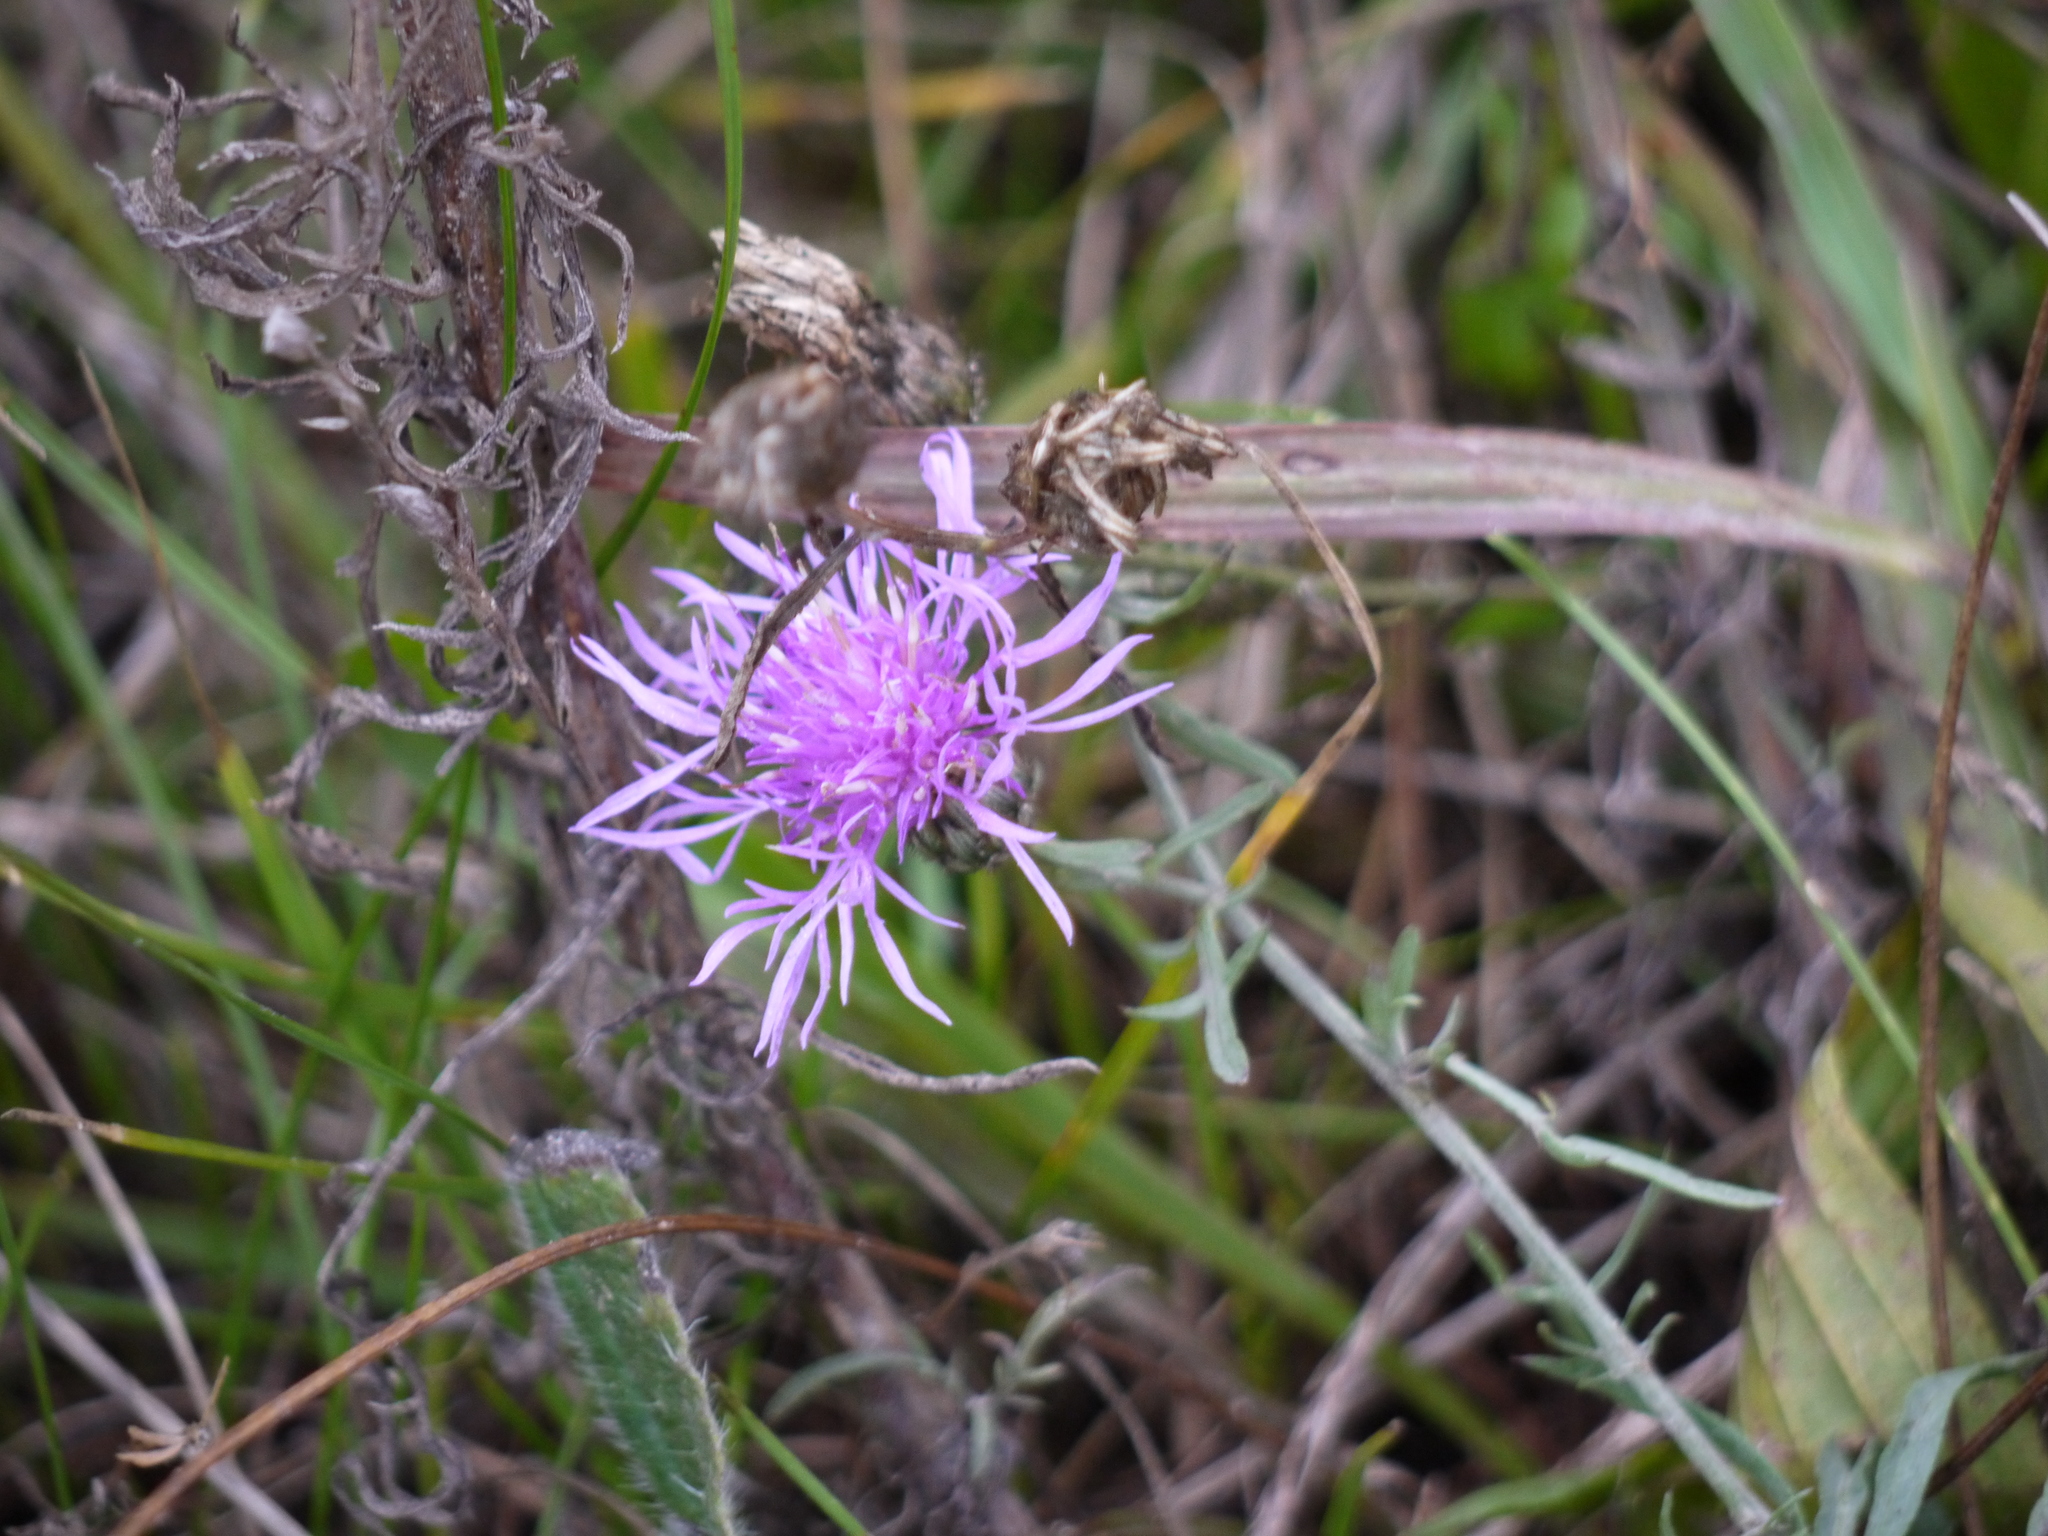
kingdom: Plantae
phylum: Tracheophyta
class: Magnoliopsida
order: Asterales
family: Asteraceae
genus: Centaurea
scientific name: Centaurea stoebe
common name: Spotted knapweed
